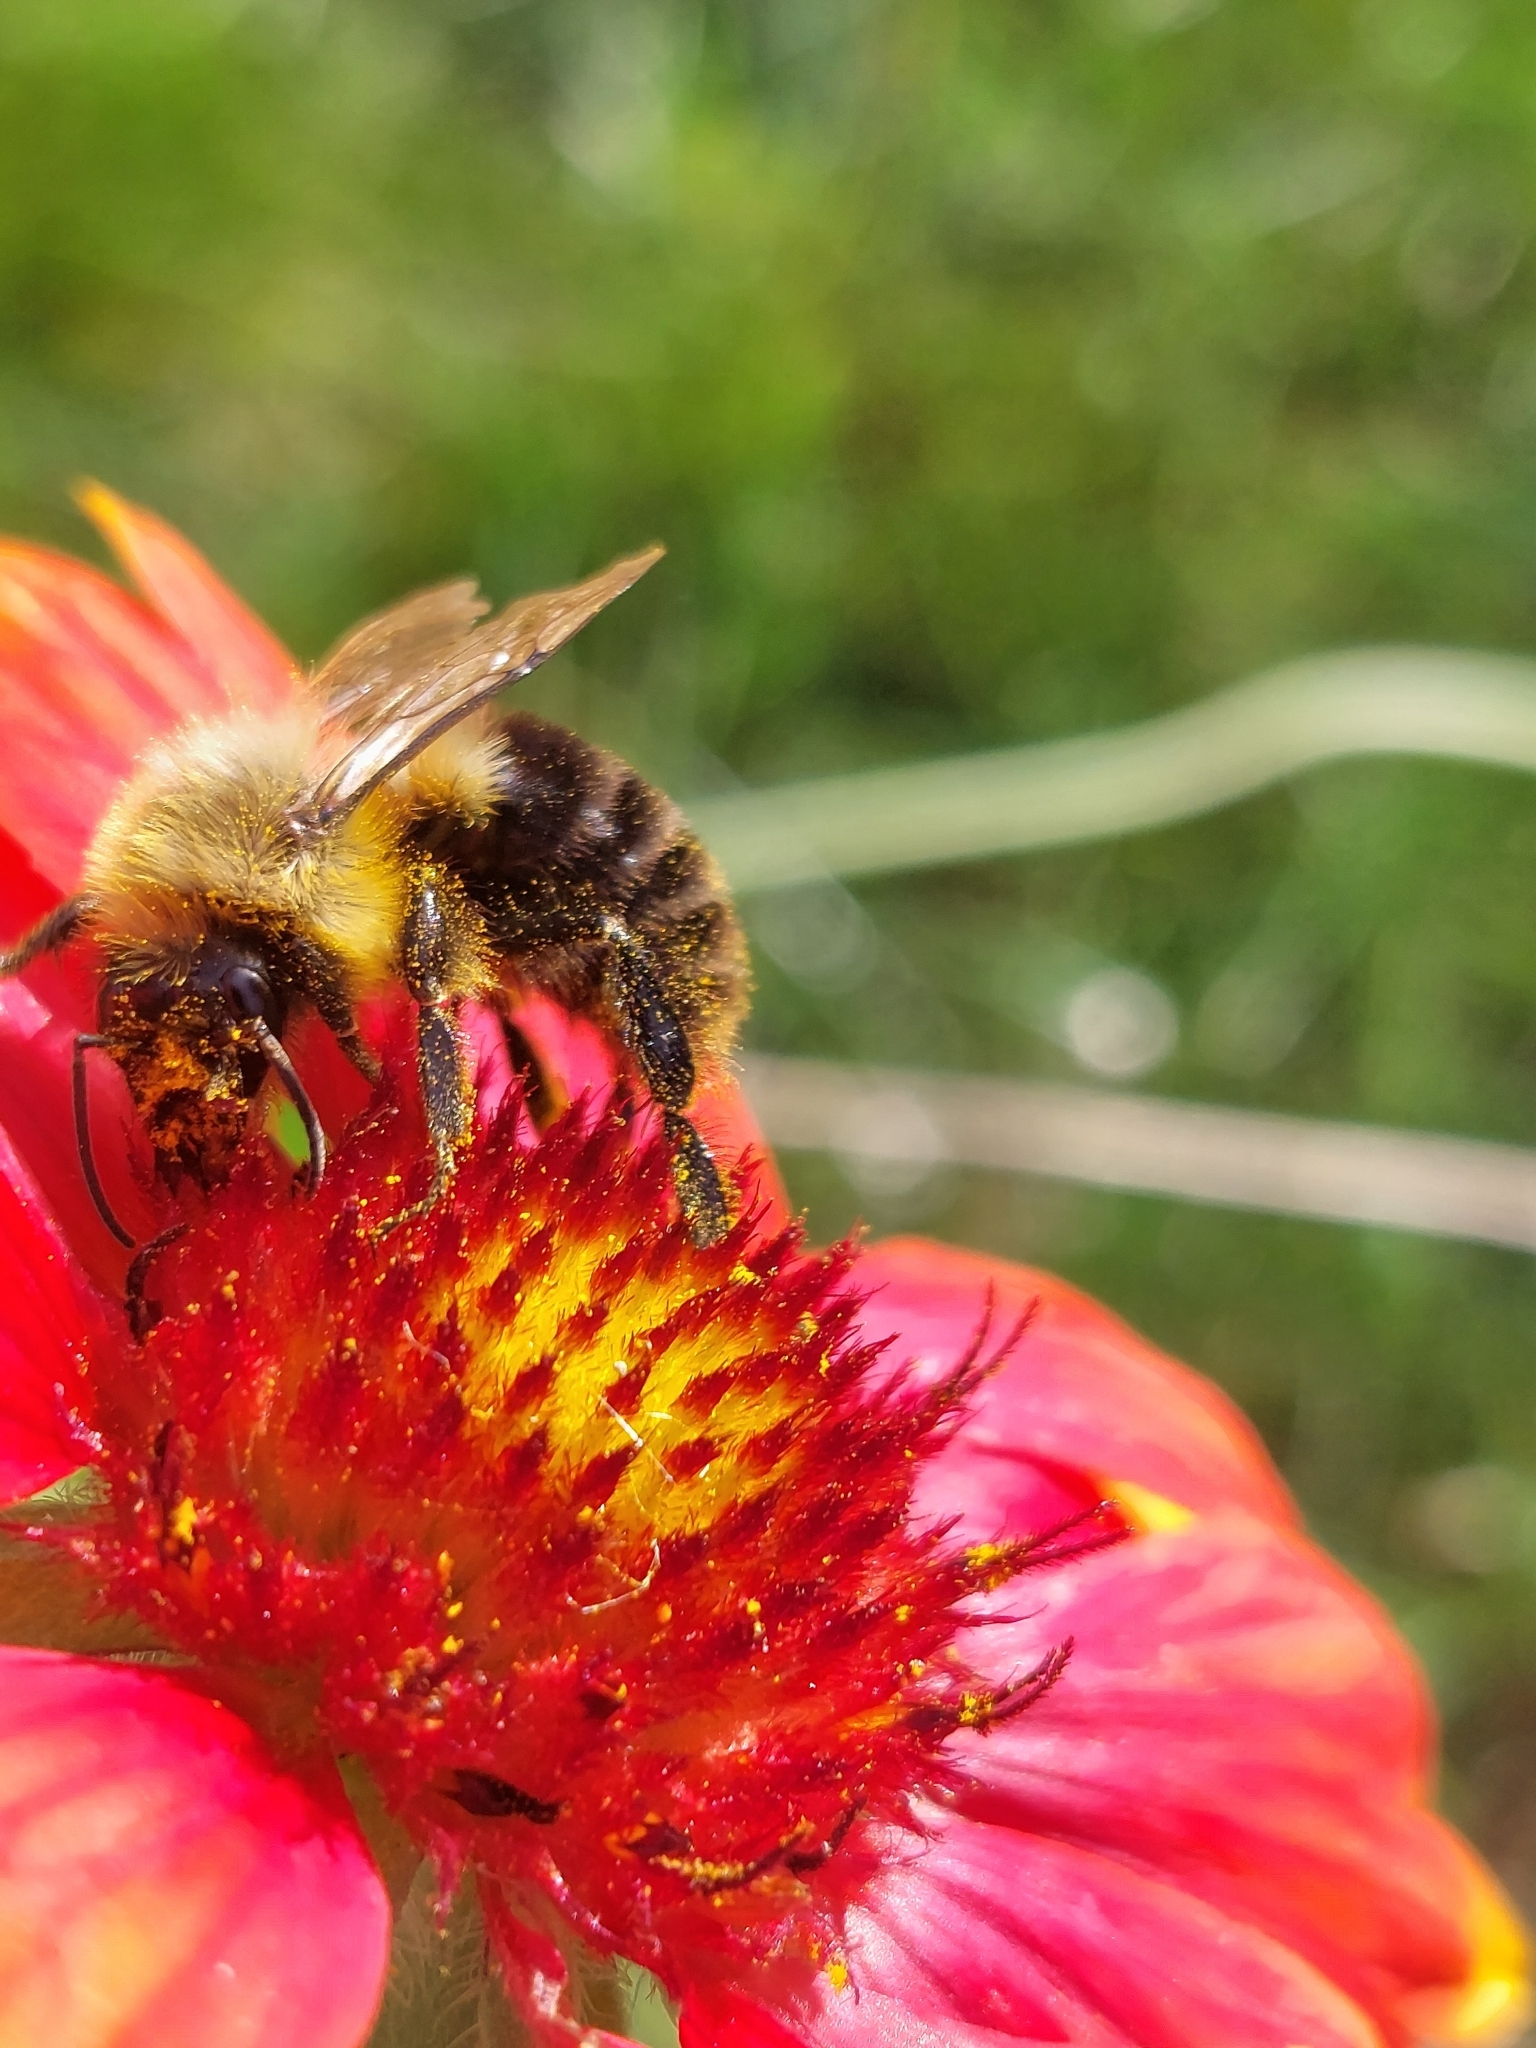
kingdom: Animalia
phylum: Arthropoda
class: Insecta
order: Hymenoptera
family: Apidae
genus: Bombus
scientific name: Bombus impatiens
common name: Common eastern bumble bee
